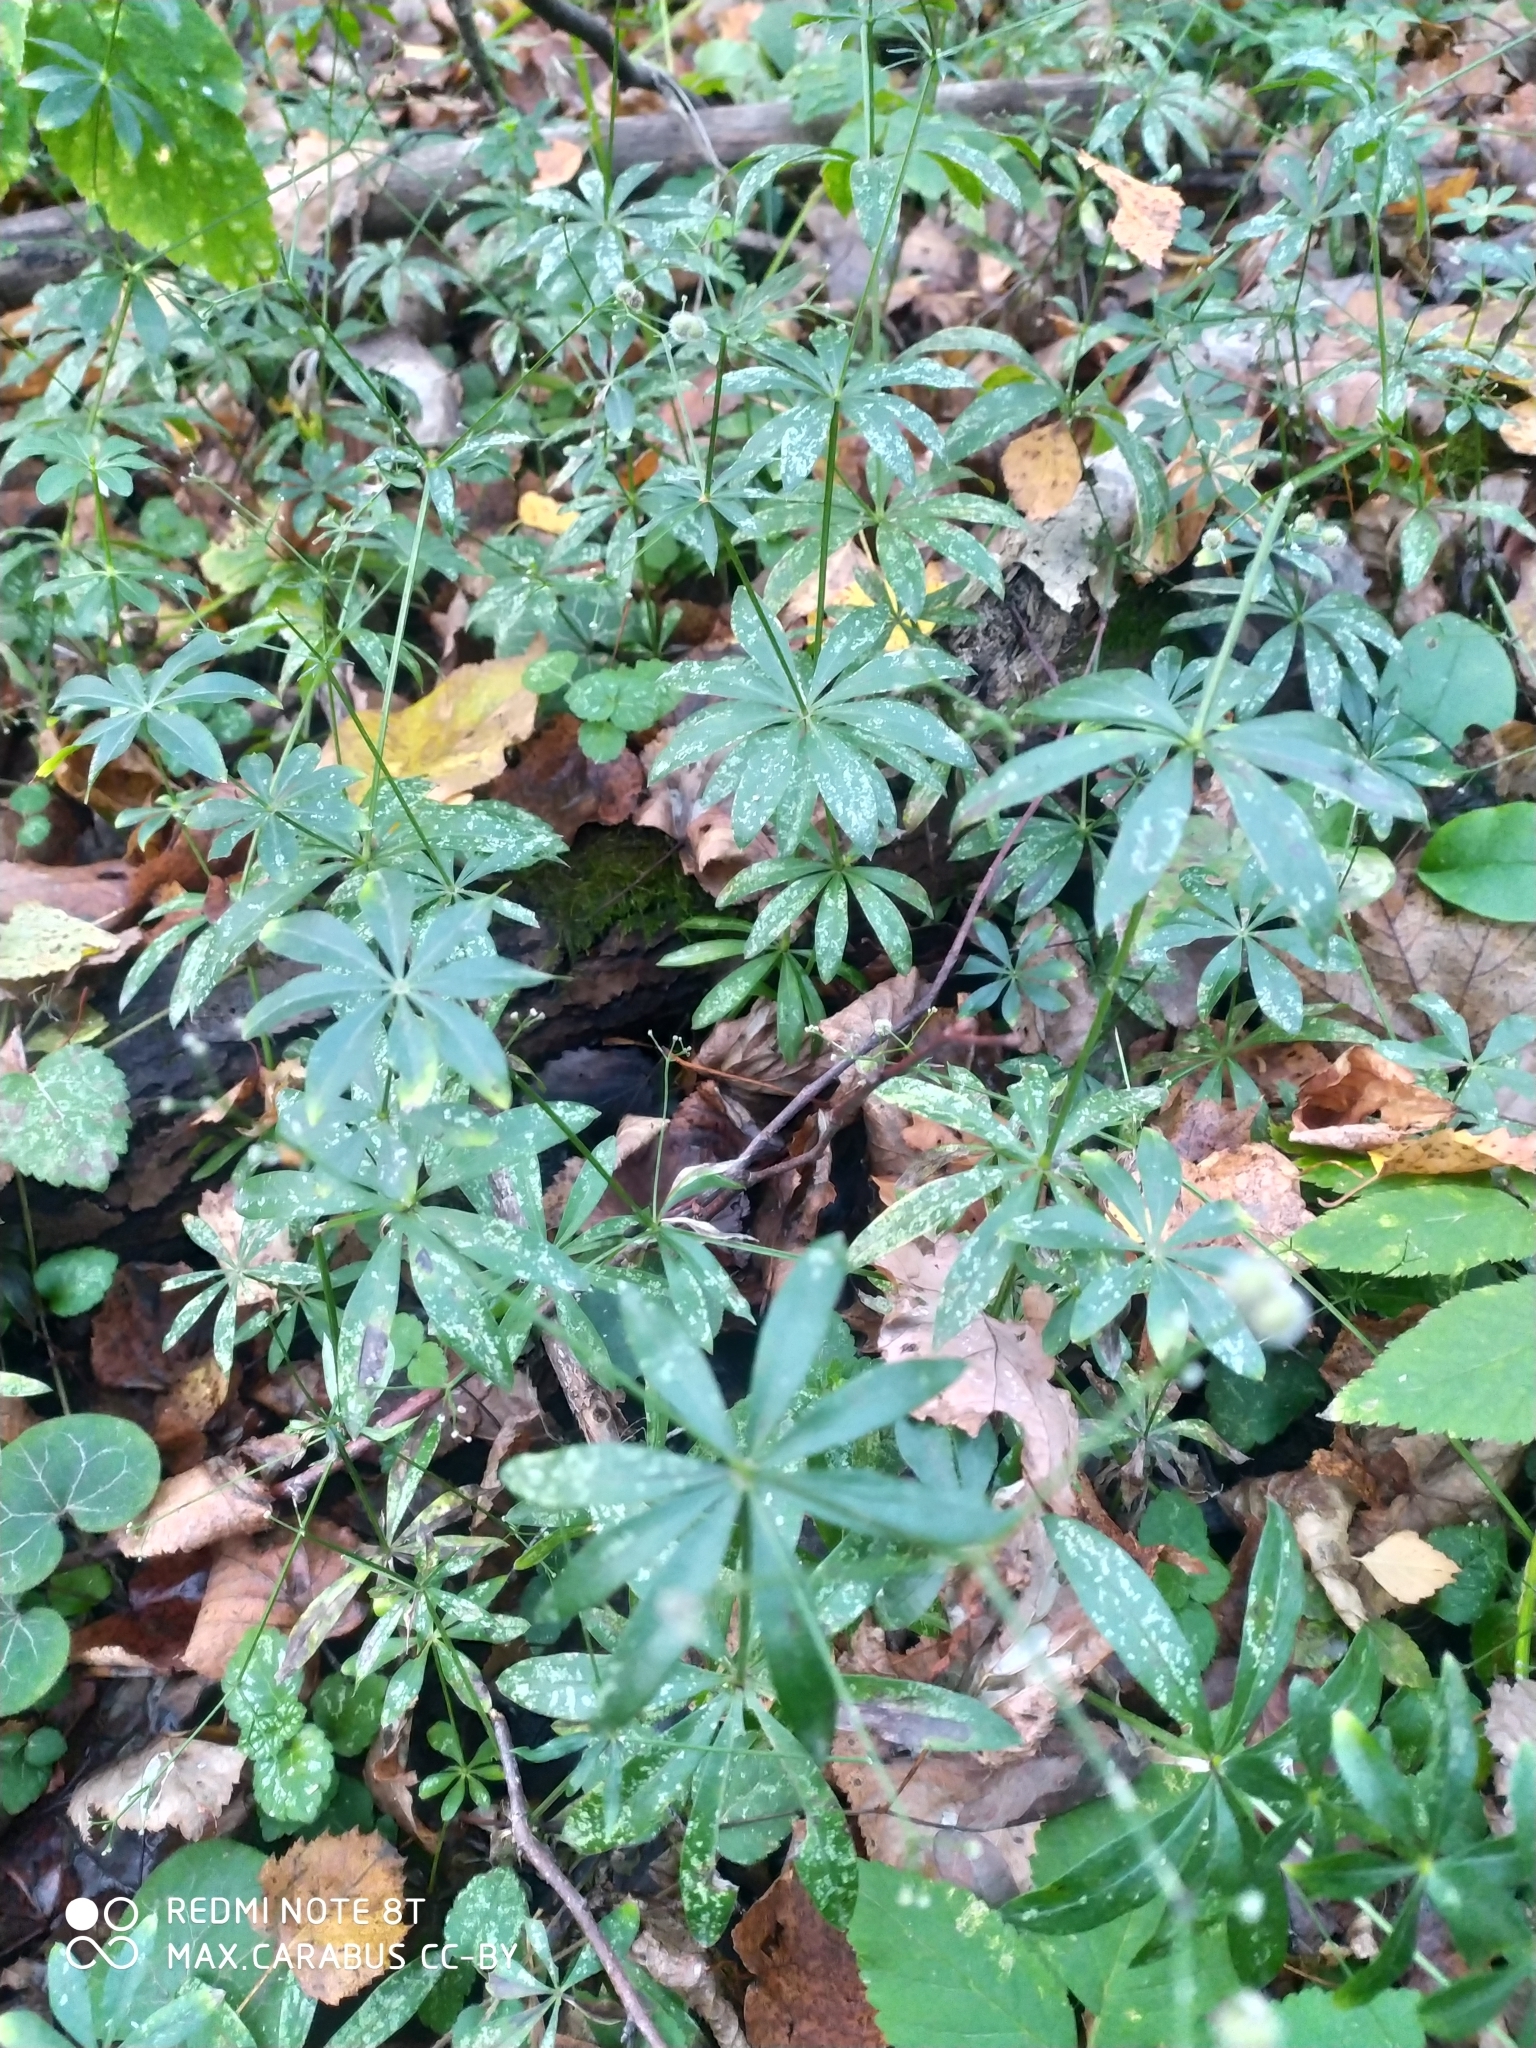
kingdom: Plantae
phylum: Tracheophyta
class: Magnoliopsida
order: Gentianales
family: Rubiaceae
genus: Galium
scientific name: Galium odoratum
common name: Sweet woodruff
